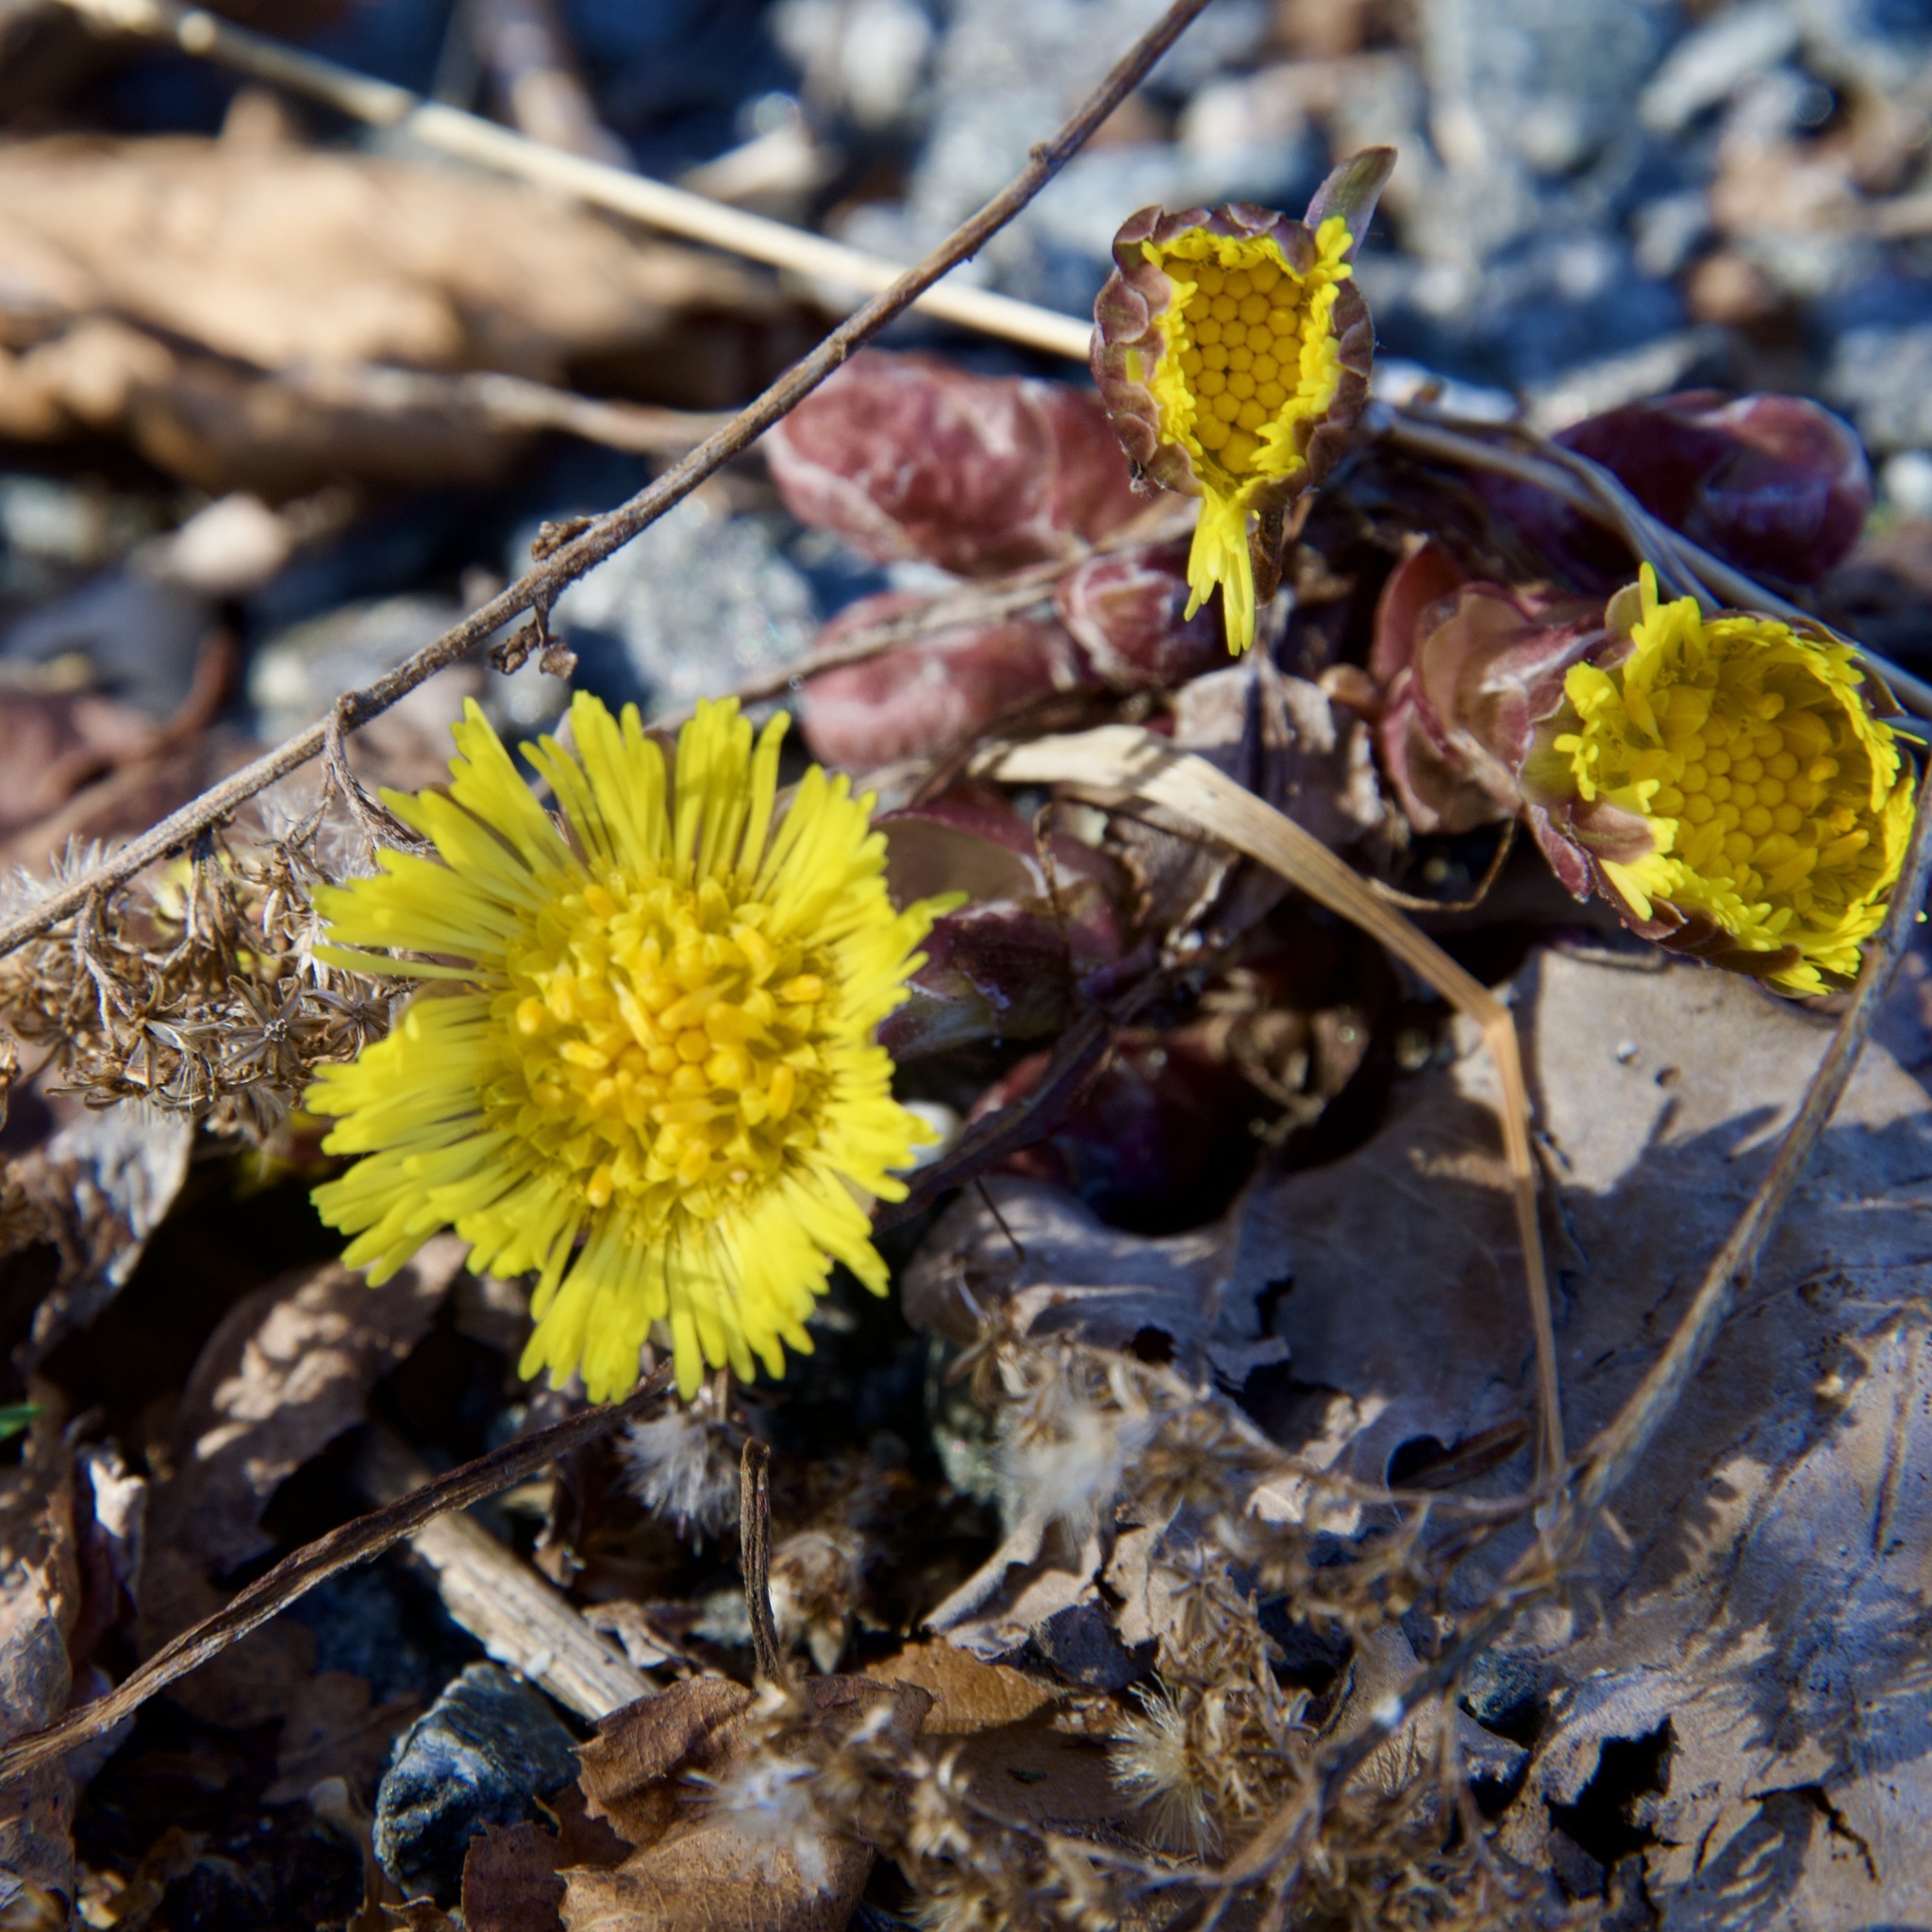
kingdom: Plantae
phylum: Tracheophyta
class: Magnoliopsida
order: Asterales
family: Asteraceae
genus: Tussilago
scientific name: Tussilago farfara
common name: Coltsfoot
